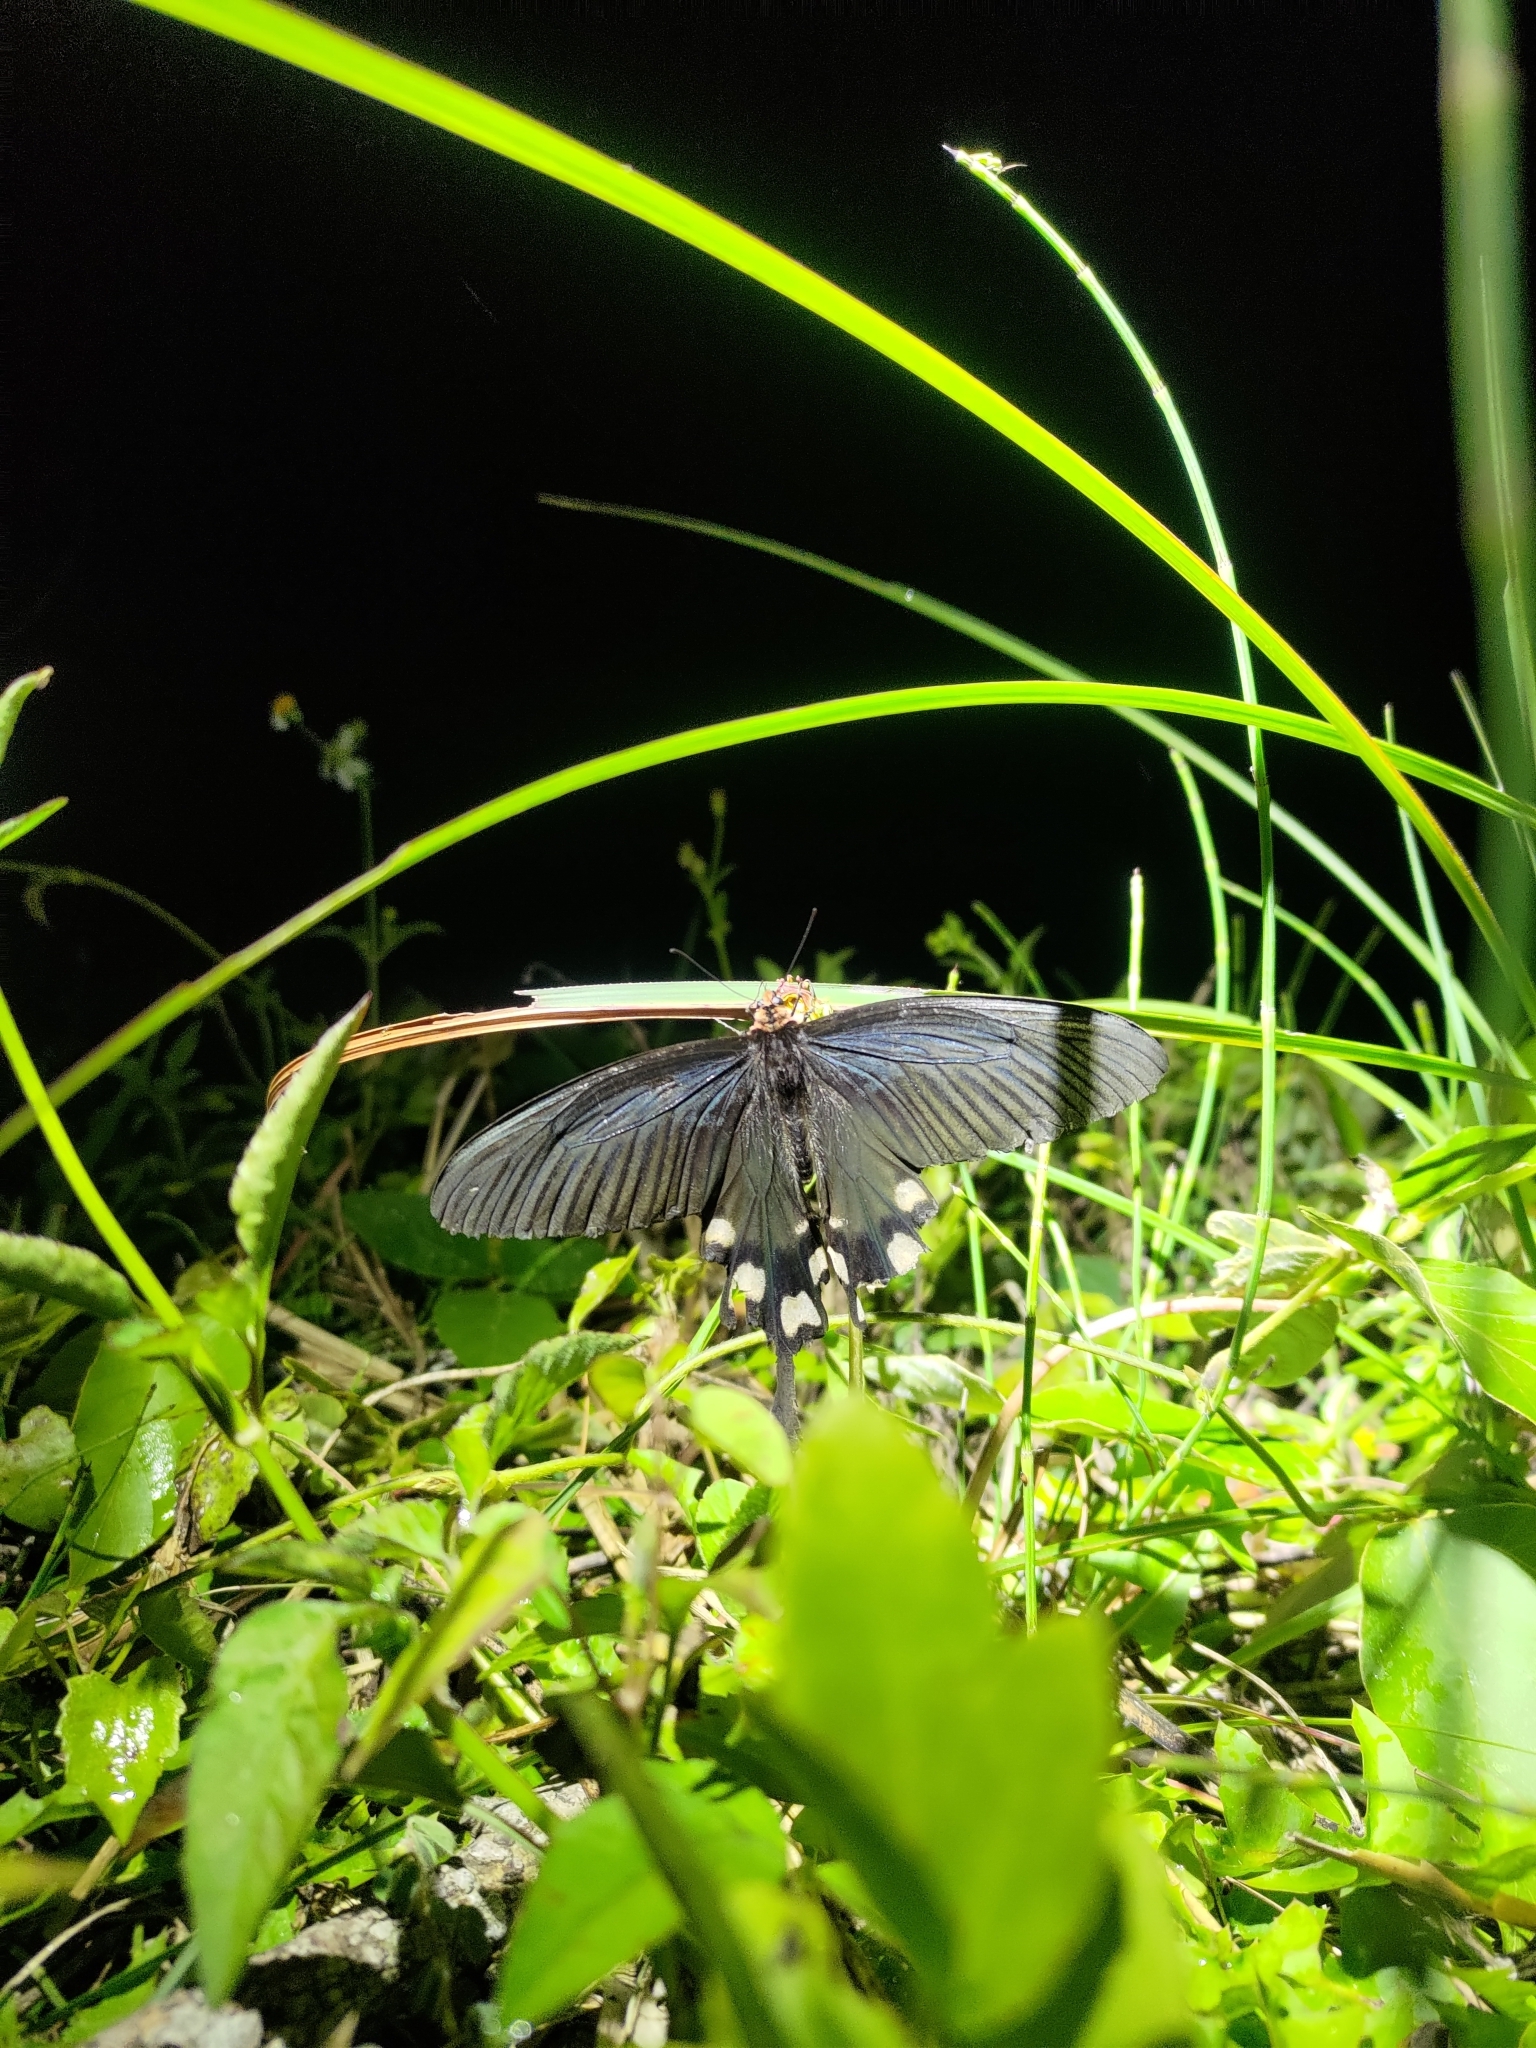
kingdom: Animalia
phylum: Arthropoda
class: Insecta
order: Lepidoptera
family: Papilionidae
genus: Byasa
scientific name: Byasa impediens
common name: Pink-spotted windmill
